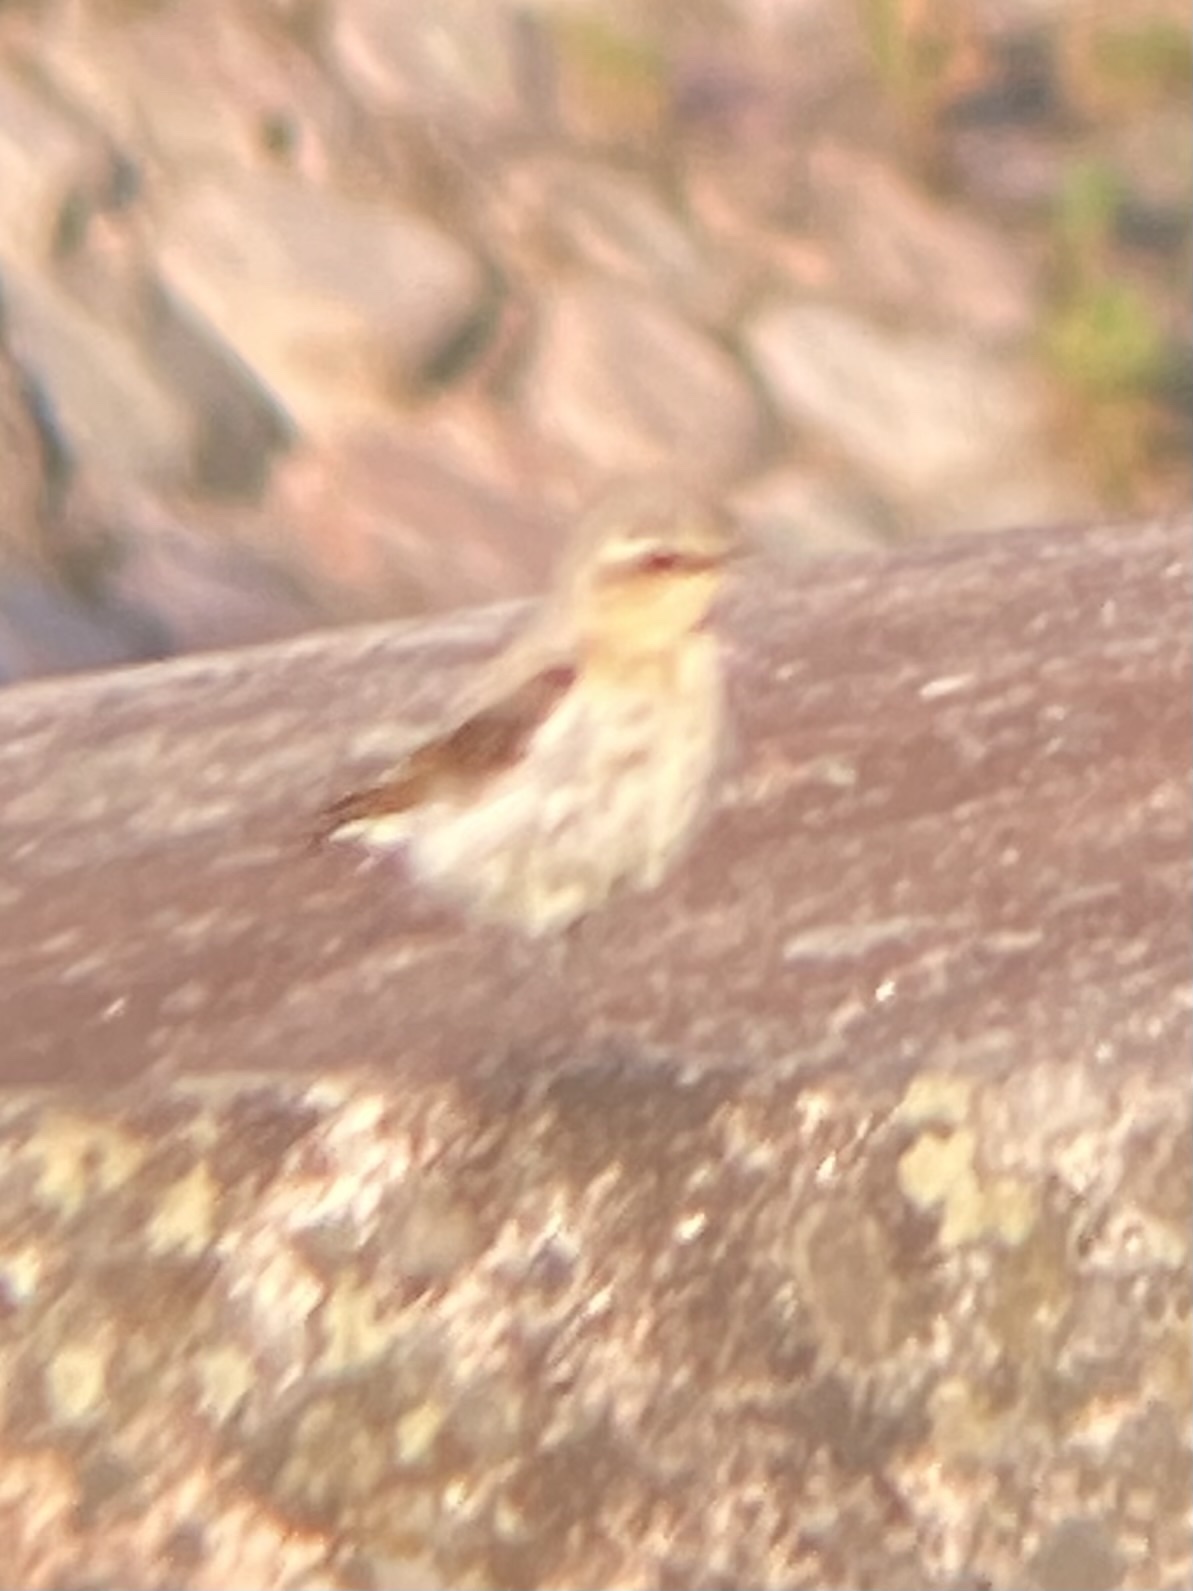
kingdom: Animalia
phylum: Chordata
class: Aves
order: Passeriformes
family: Muscicapidae
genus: Oenanthe
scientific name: Oenanthe oenanthe
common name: Northern wheatear
